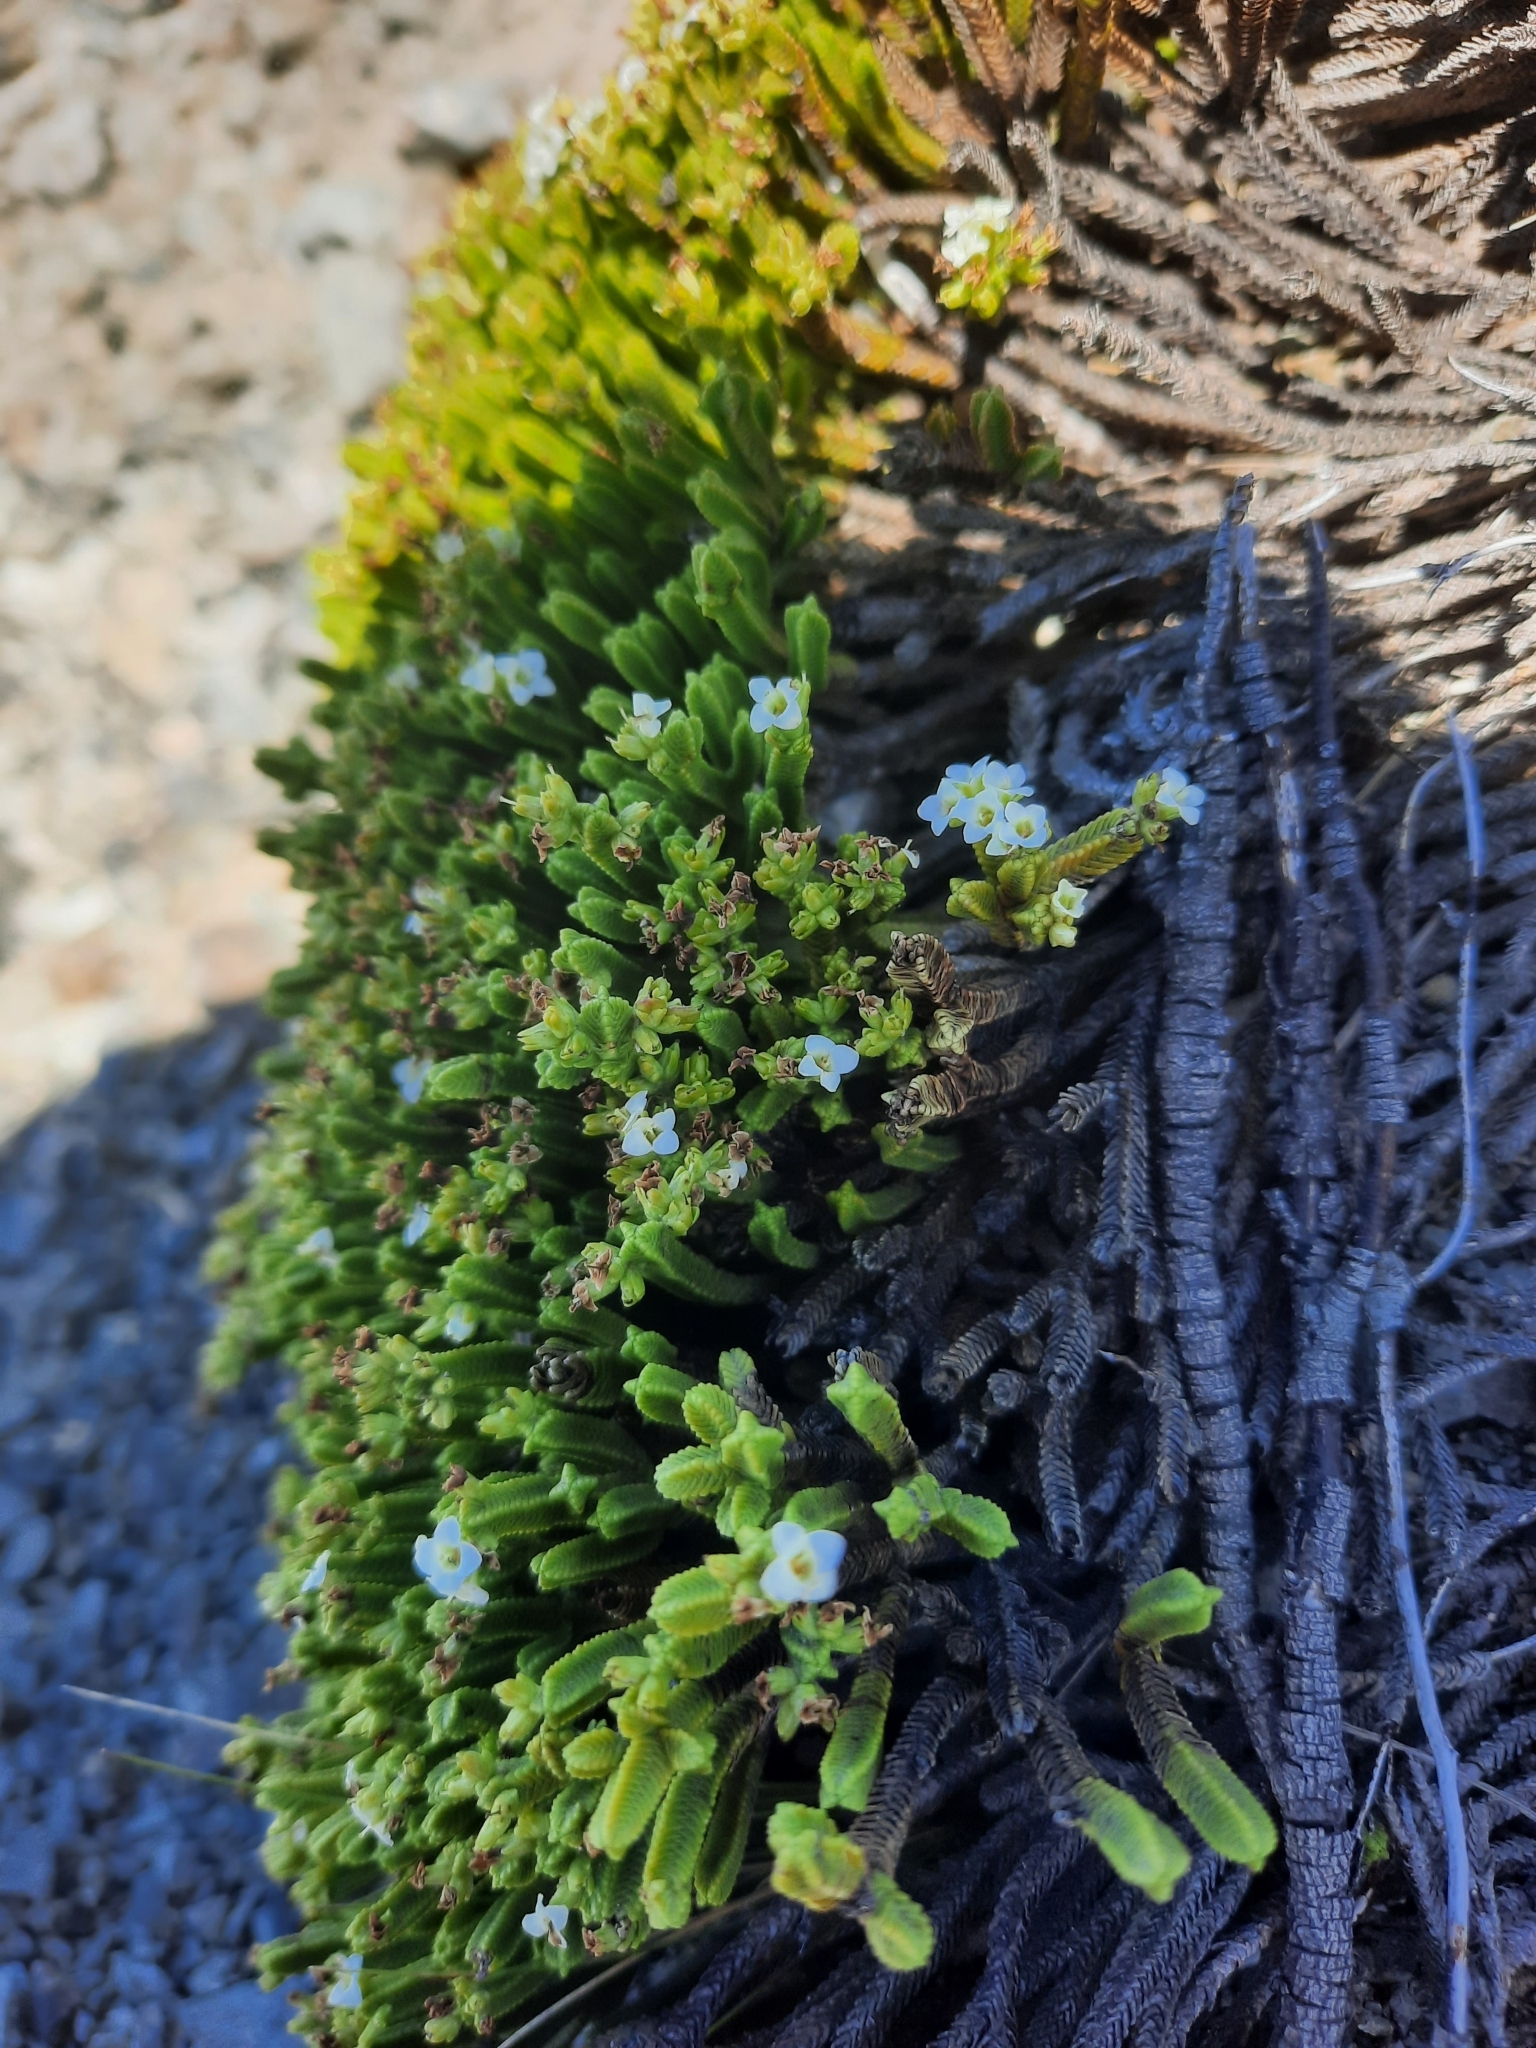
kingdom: Plantae
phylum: Tracheophyta
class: Magnoliopsida
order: Lamiales
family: Plantaginaceae
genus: Veronica
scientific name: Veronica tetrasticha
